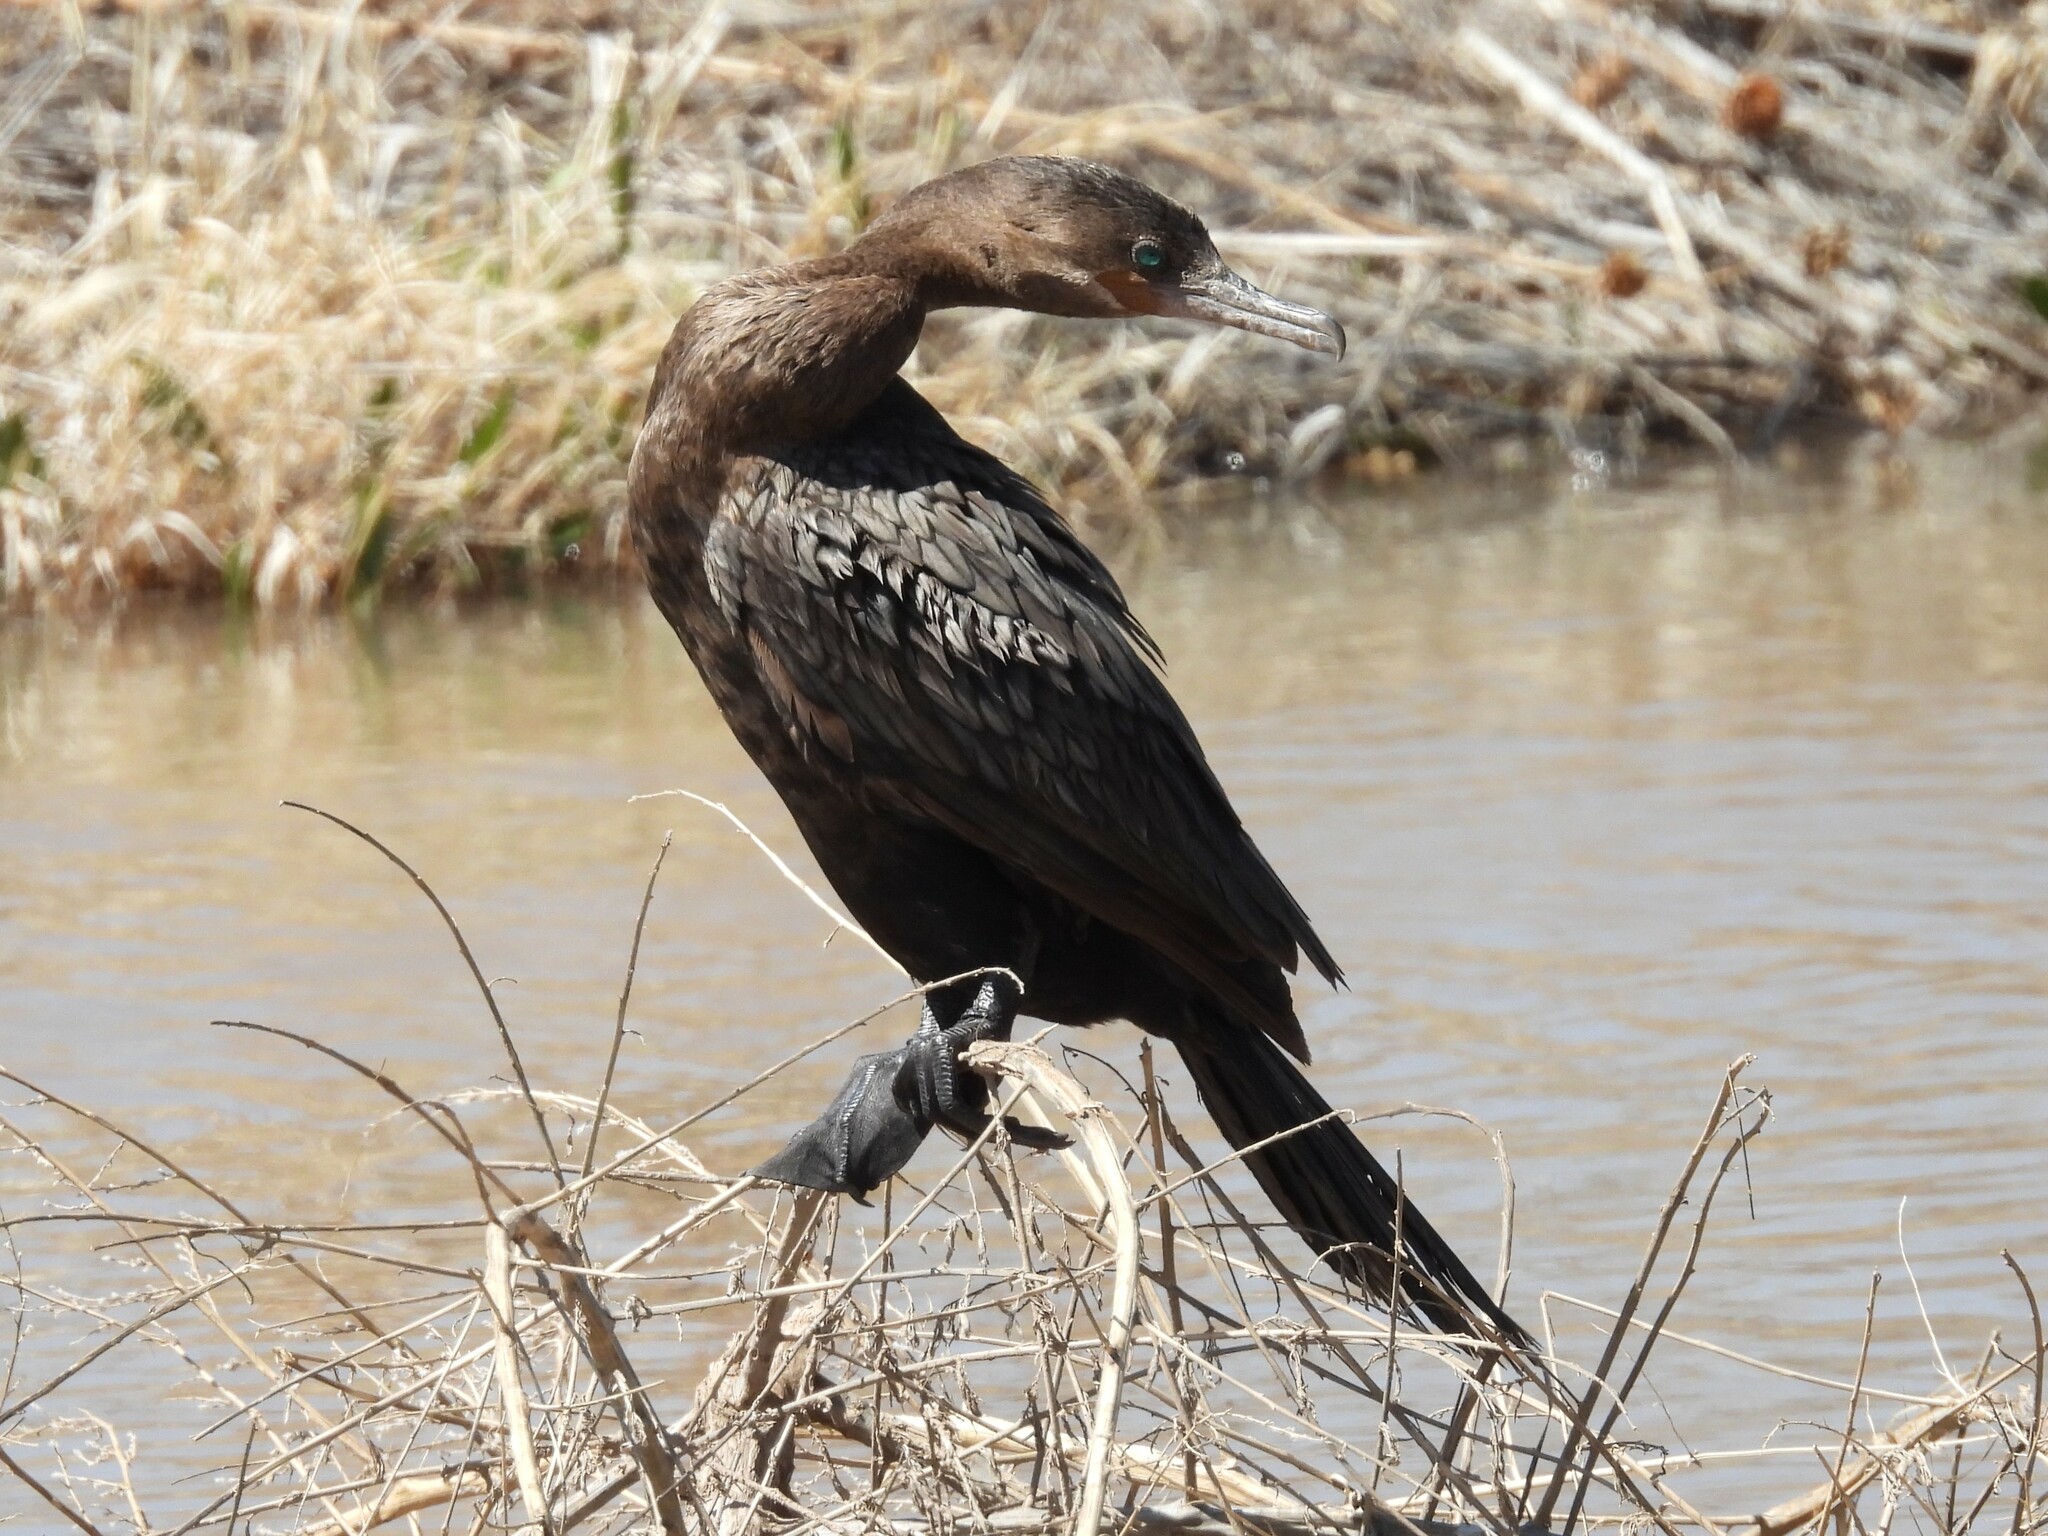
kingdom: Animalia
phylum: Chordata
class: Aves
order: Suliformes
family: Phalacrocoracidae
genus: Phalacrocorax
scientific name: Phalacrocorax brasilianus
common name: Neotropic cormorant
